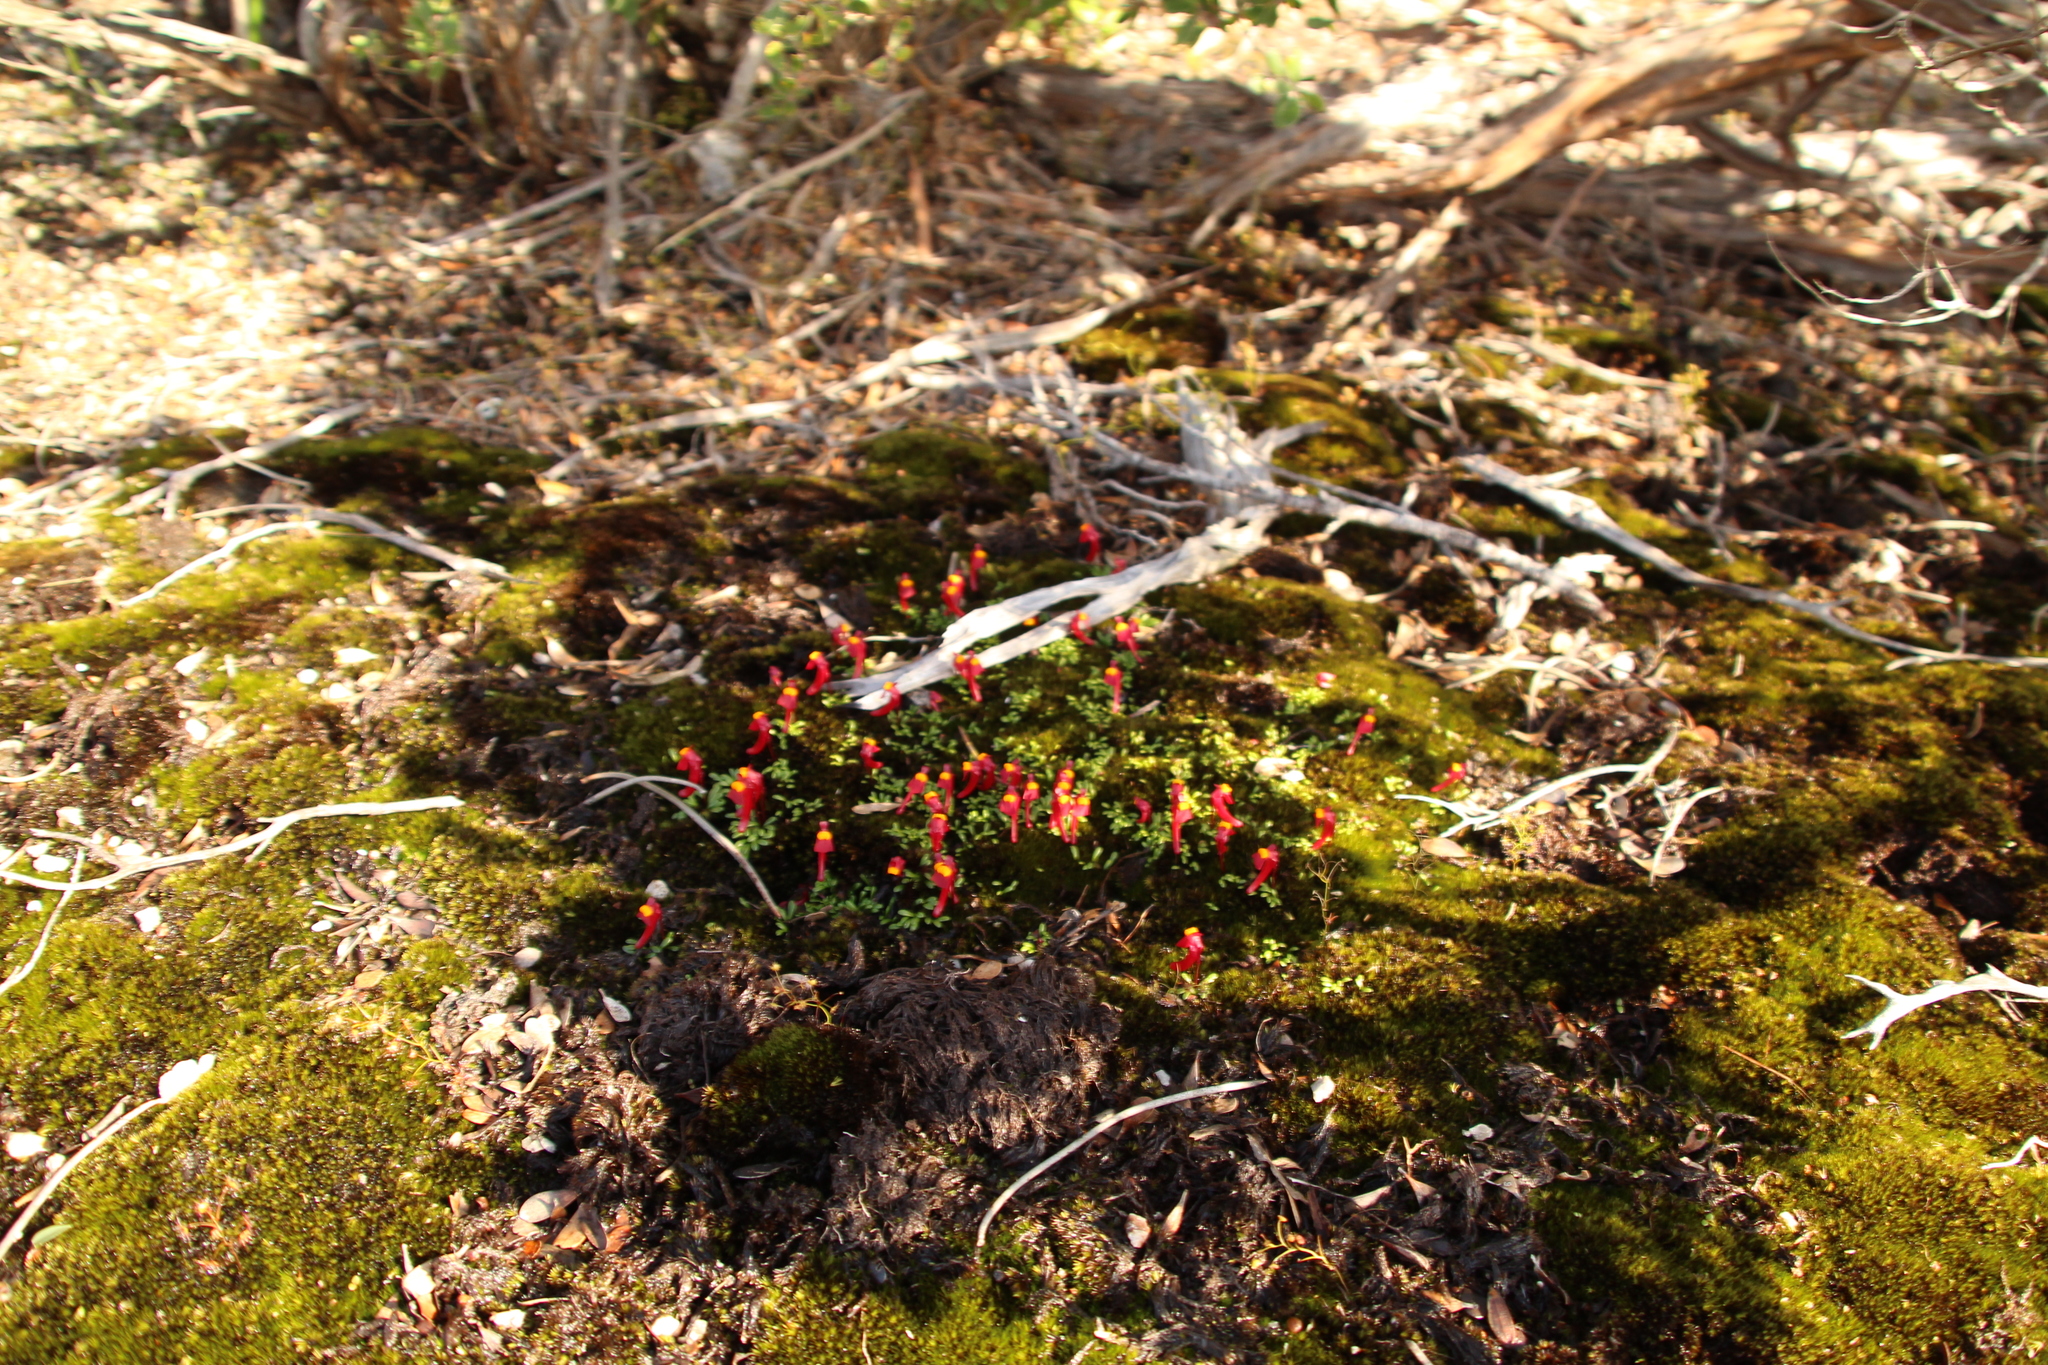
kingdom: Plantae
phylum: Tracheophyta
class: Magnoliopsida
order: Lamiales
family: Lentibulariaceae
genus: Utricularia
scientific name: Utricularia menziesii
